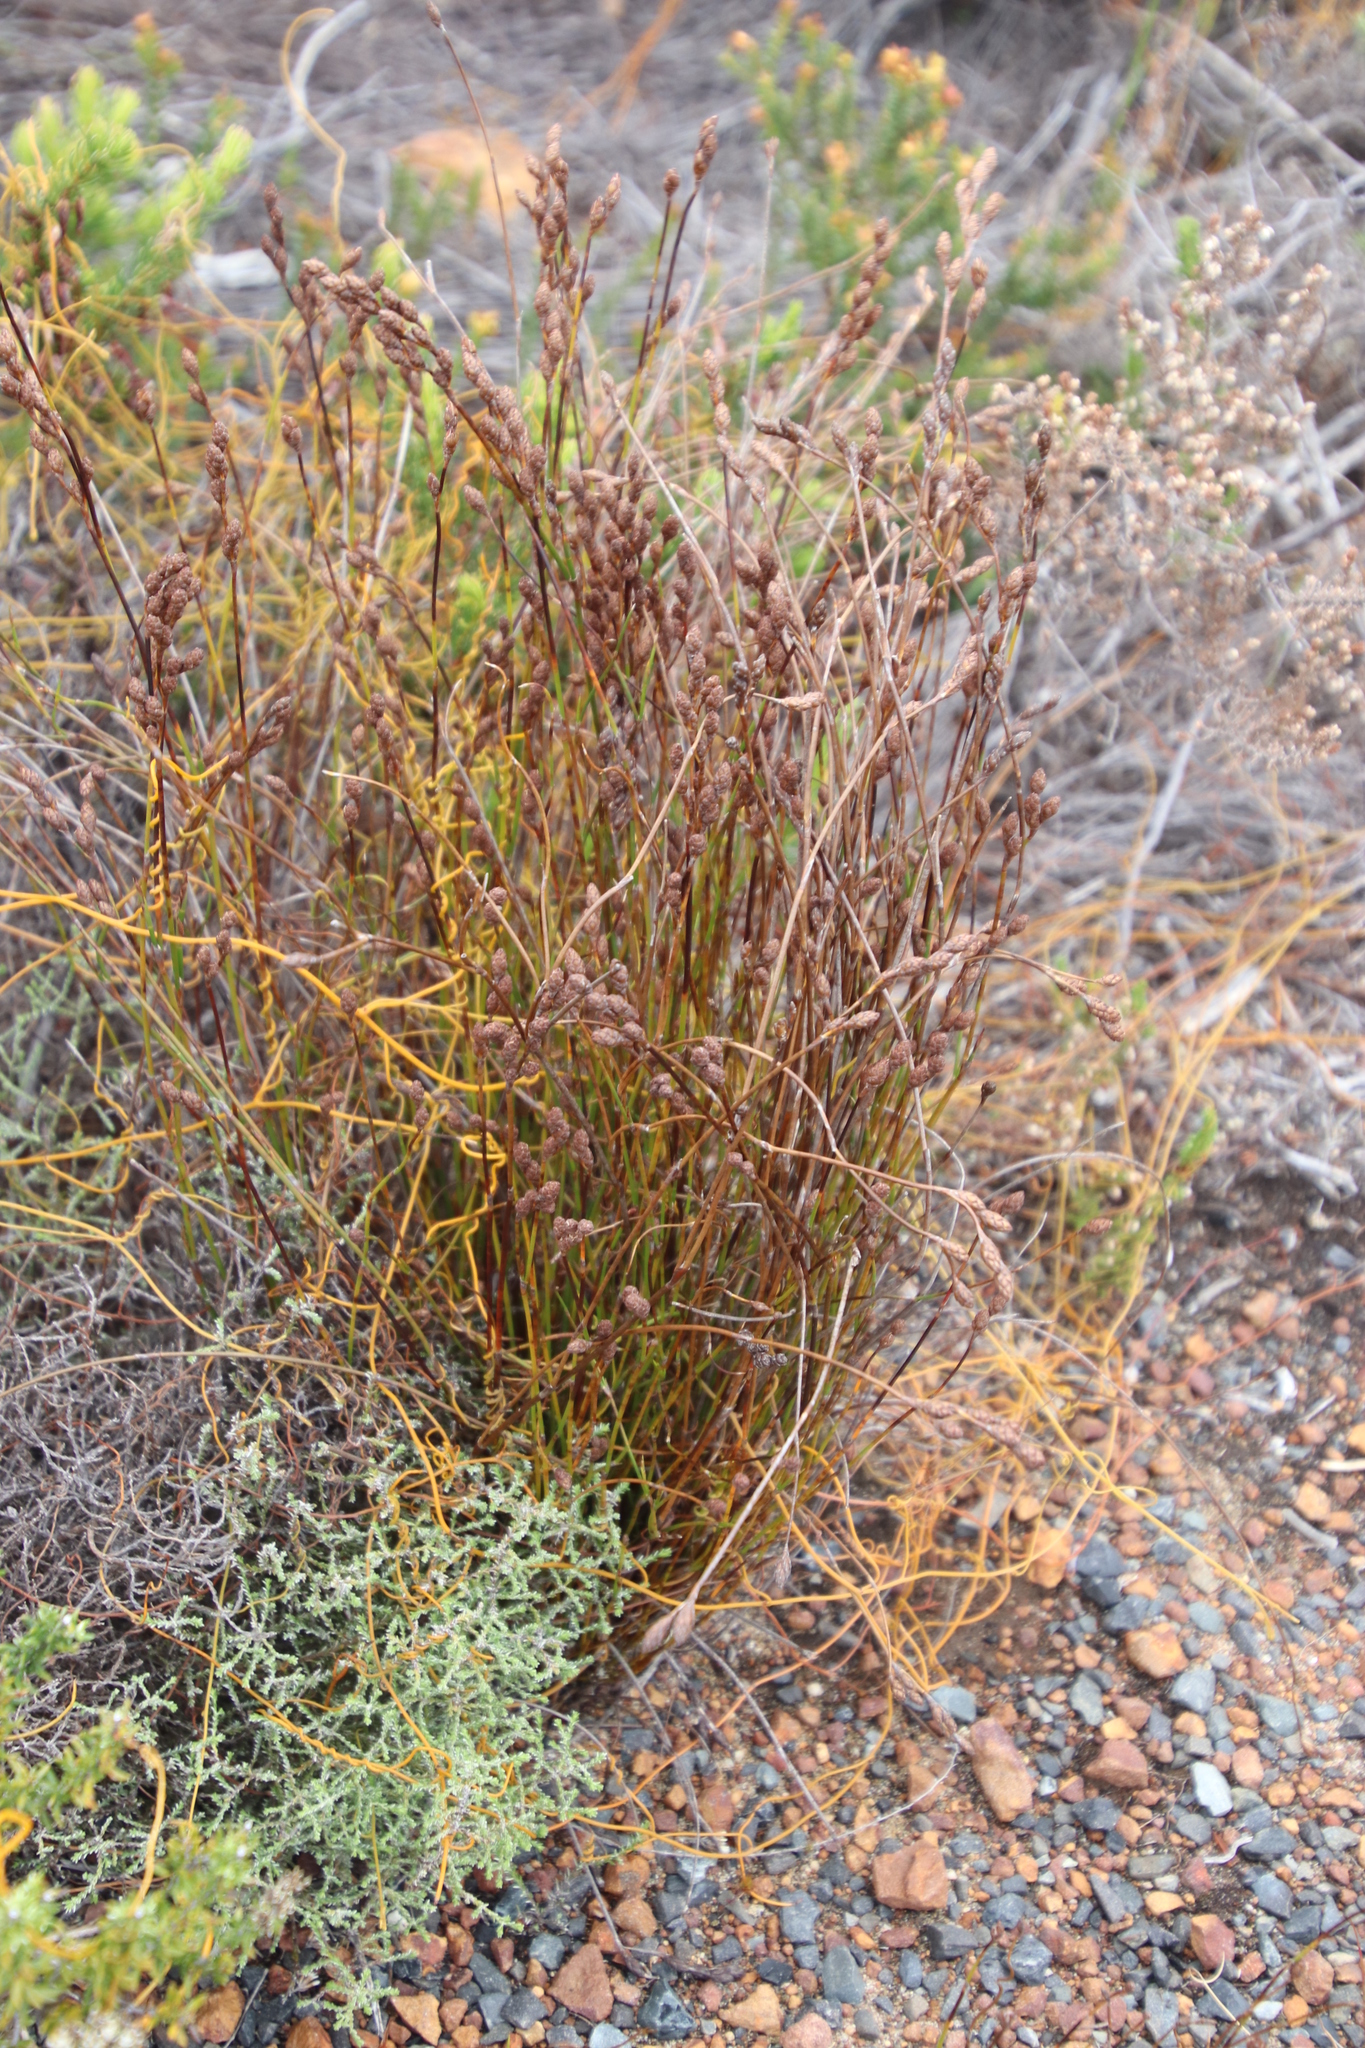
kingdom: Plantae
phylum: Tracheophyta
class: Liliopsida
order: Poales
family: Restionaceae
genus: Restio
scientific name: Restio bifurcus
